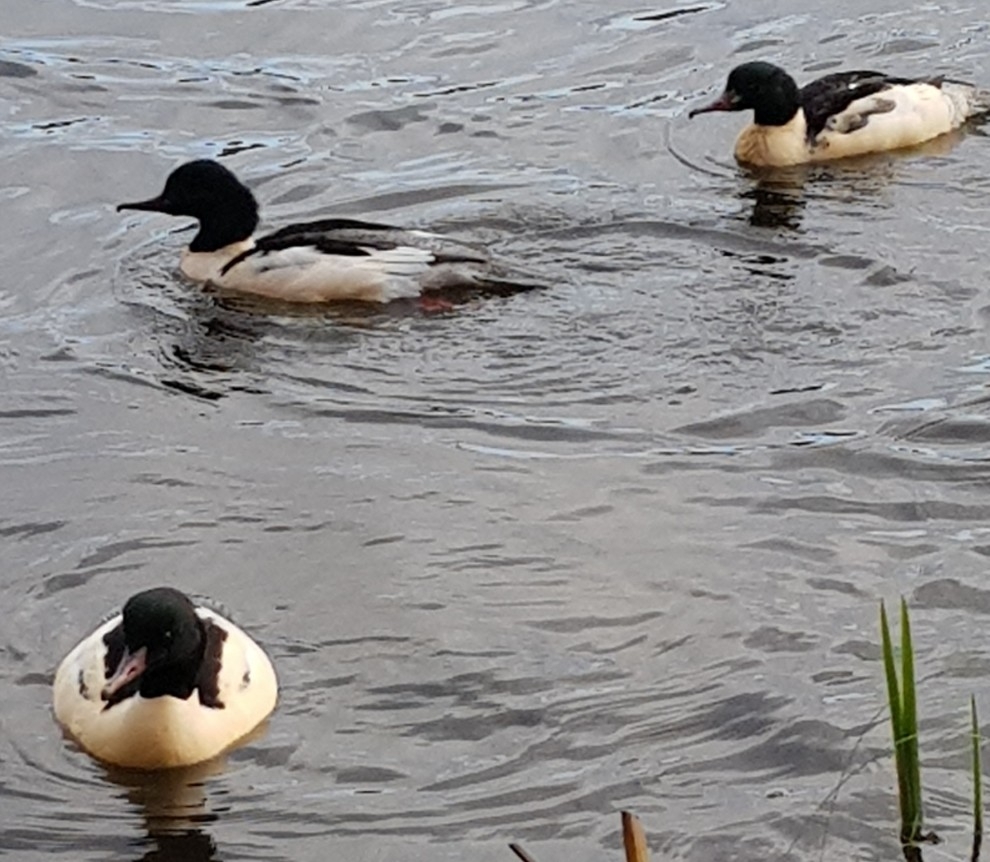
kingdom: Animalia
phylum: Chordata
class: Aves
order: Anseriformes
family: Anatidae
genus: Mergus
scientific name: Mergus merganser
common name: Common merganser
